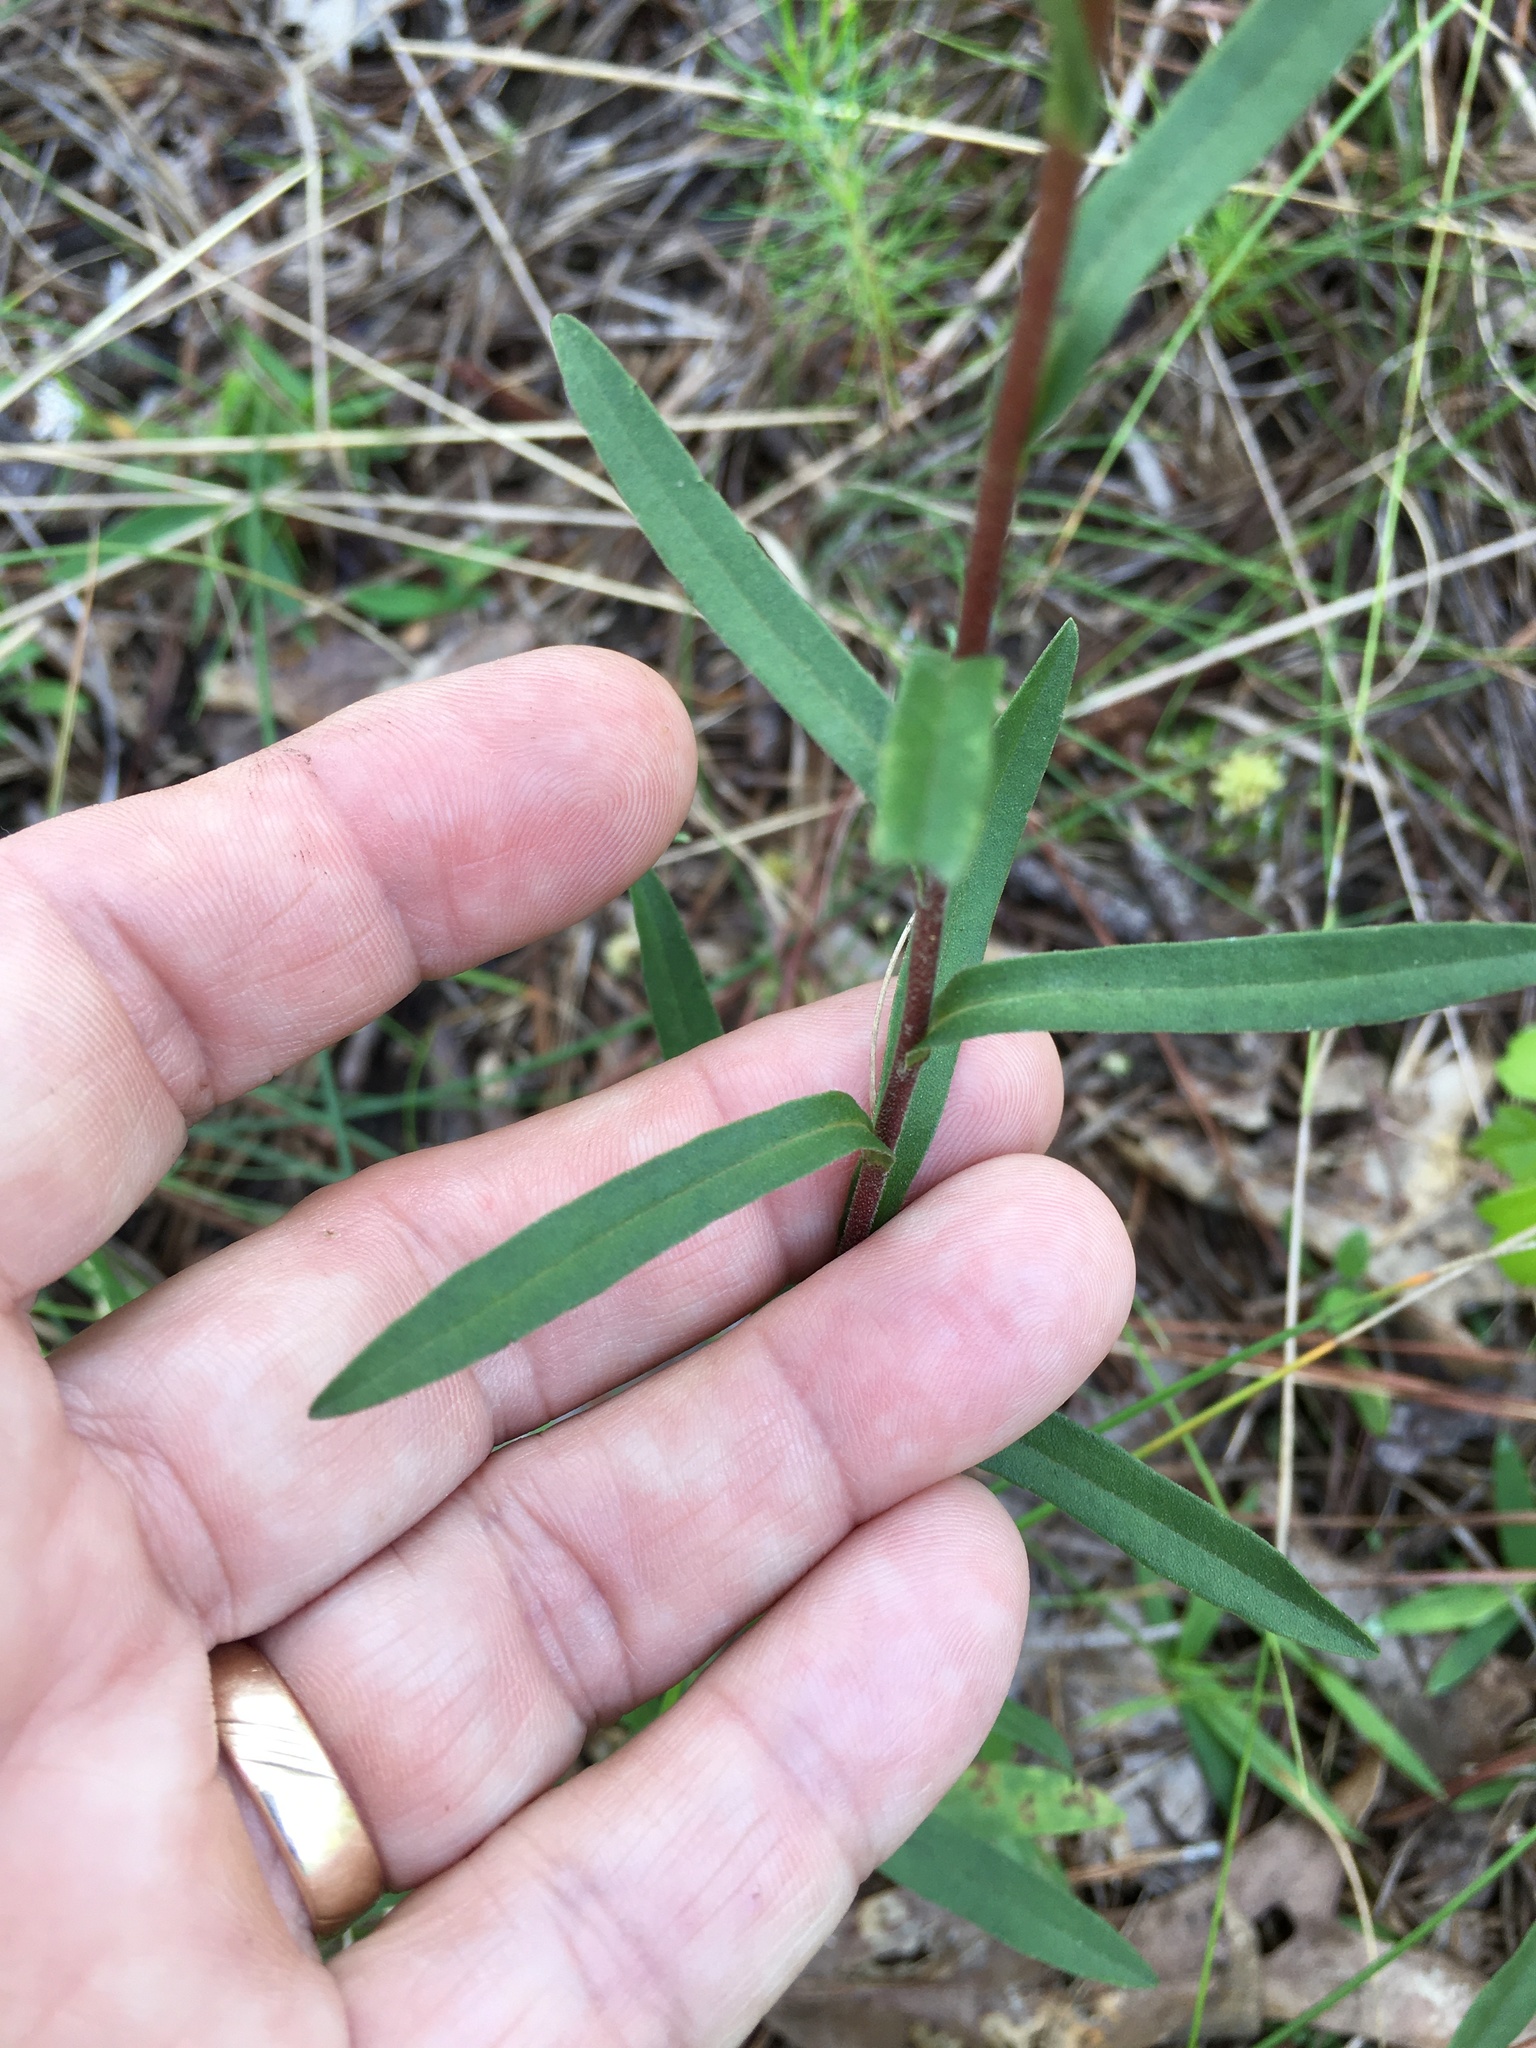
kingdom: Plantae
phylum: Tracheophyta
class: Magnoliopsida
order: Asterales
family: Asteraceae
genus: Eurybia
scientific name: Eurybia compacta
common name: Slender aster
